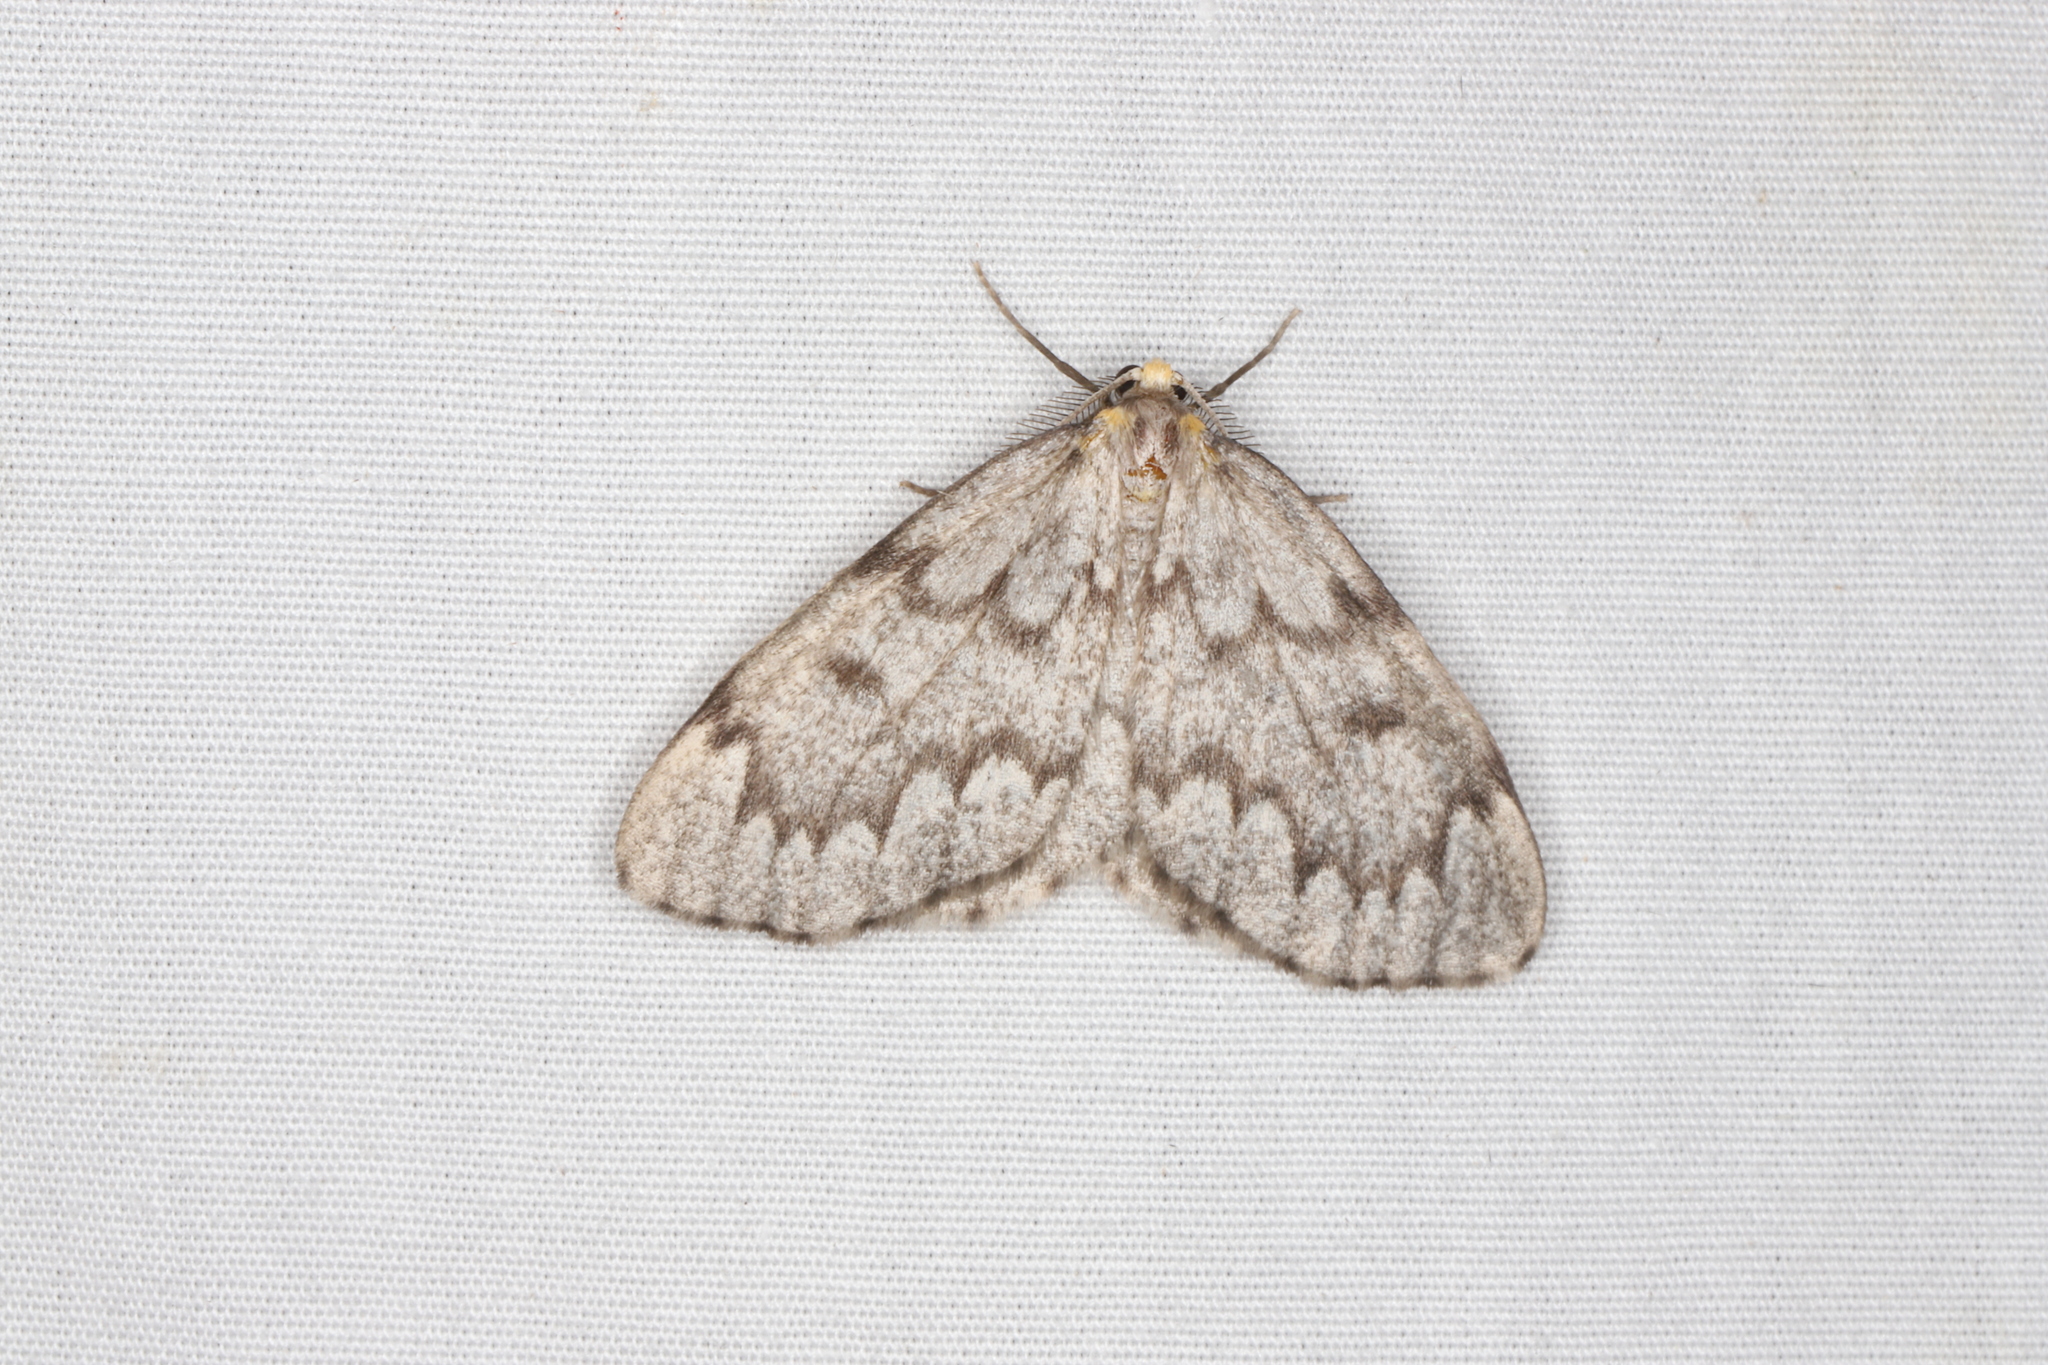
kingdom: Animalia
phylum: Arthropoda
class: Insecta
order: Lepidoptera
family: Geometridae
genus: Nepytia
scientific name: Nepytia canosaria
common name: False hemlock looper
